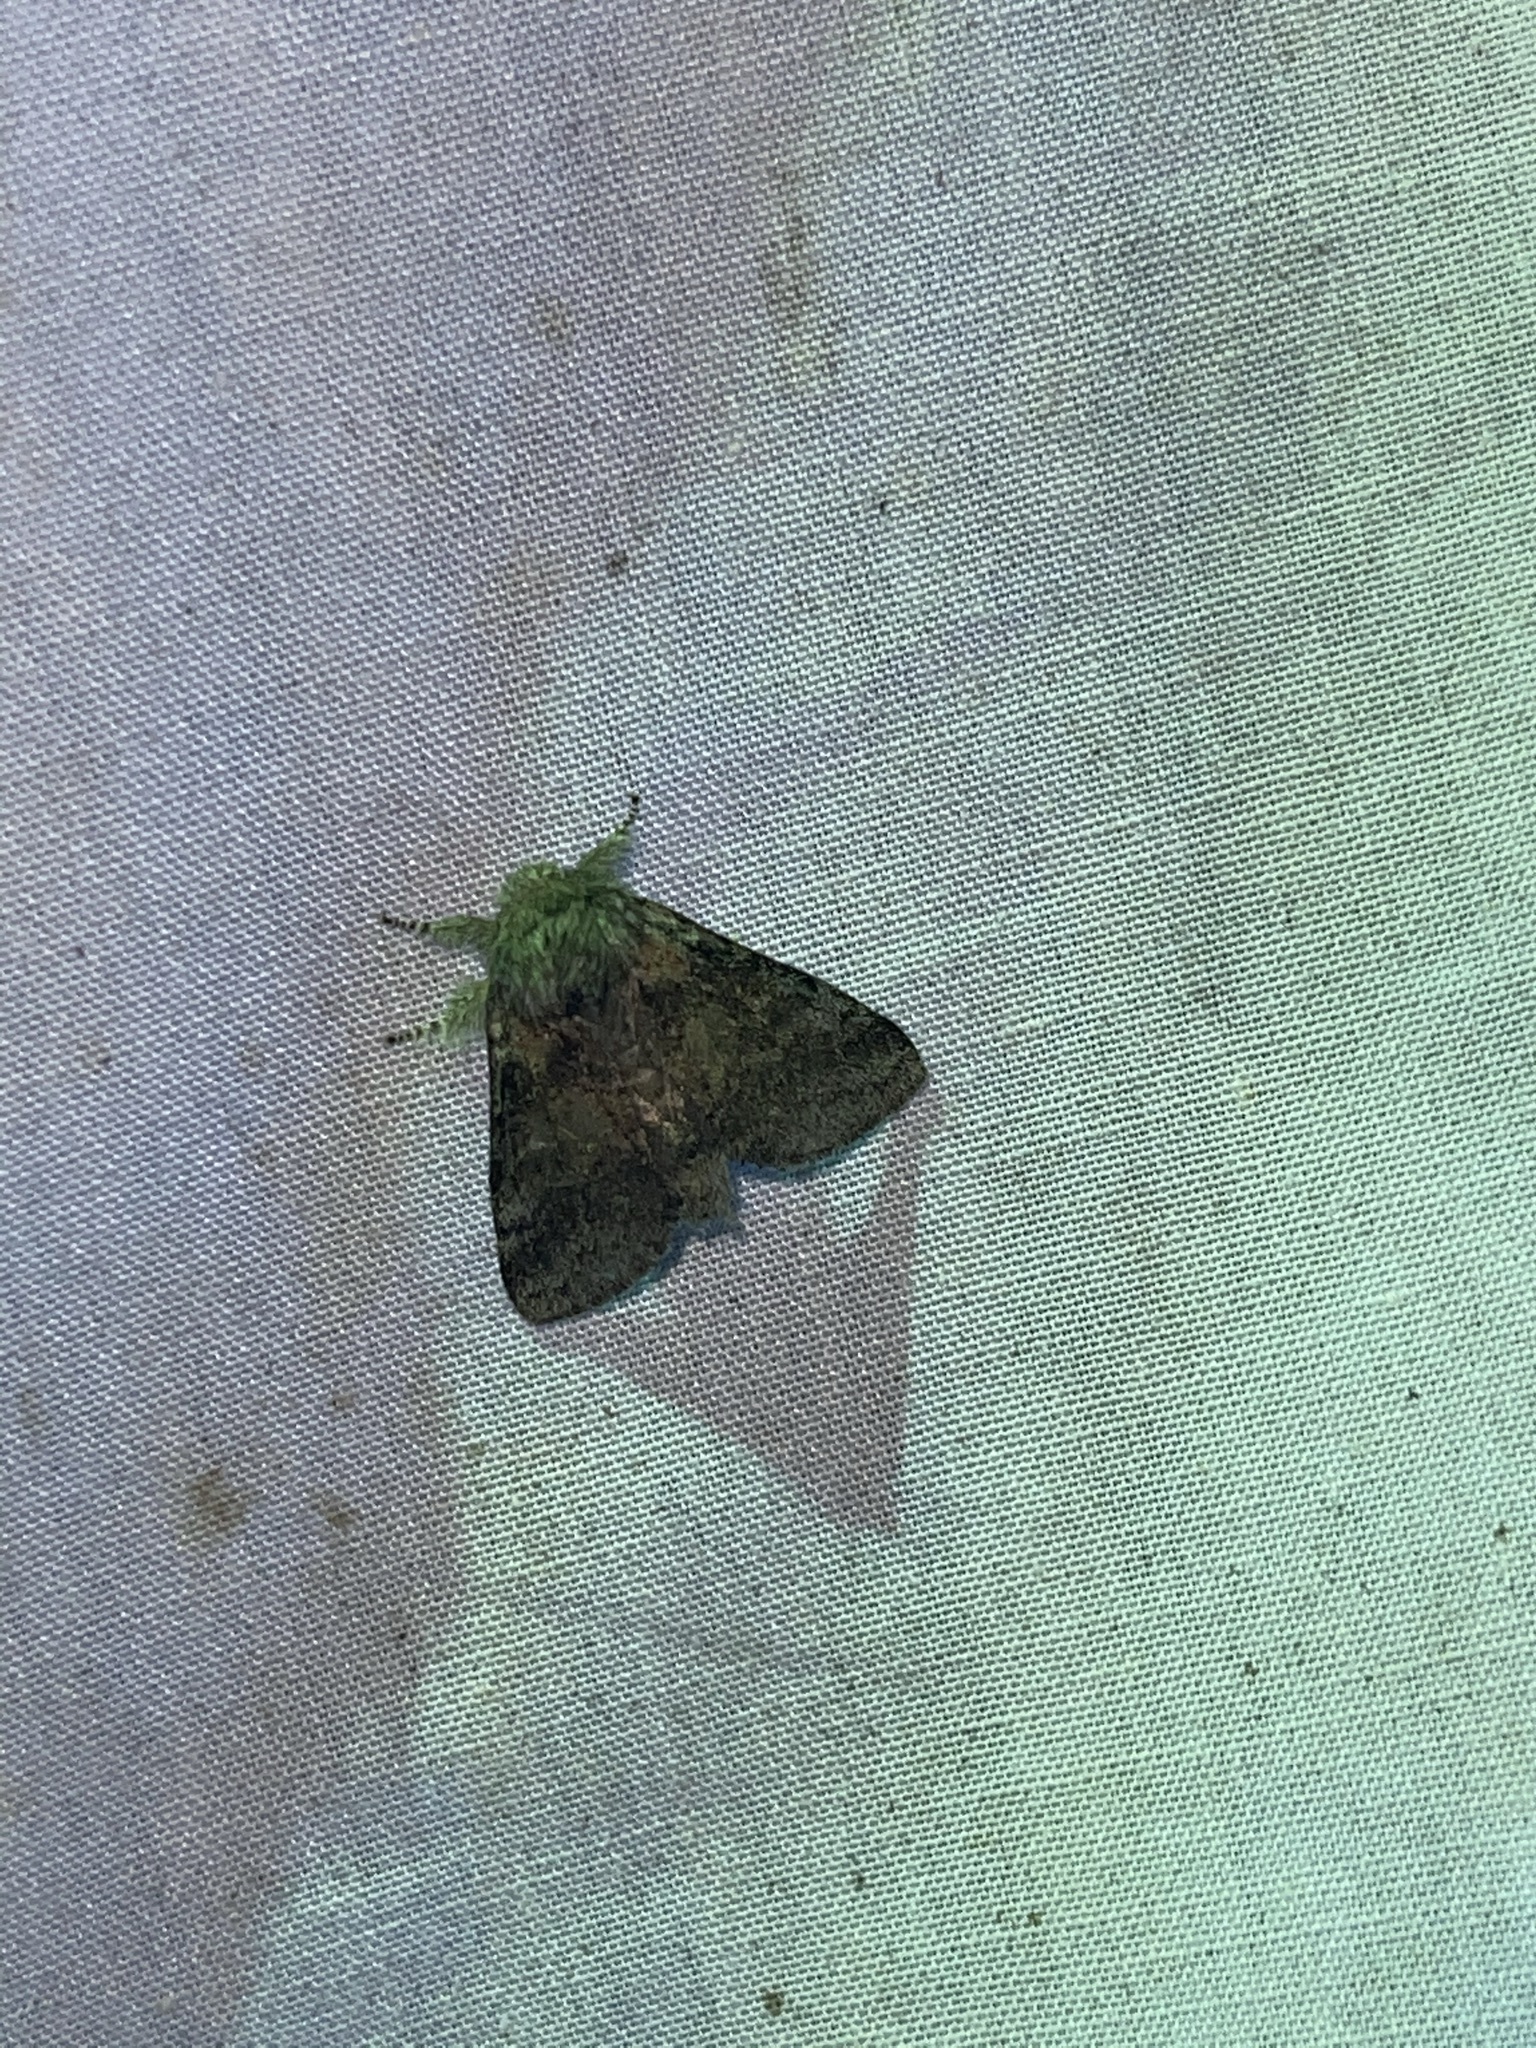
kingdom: Animalia
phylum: Arthropoda
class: Insecta
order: Lepidoptera
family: Notodontidae
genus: Gluphisia
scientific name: Gluphisia septentrionis
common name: Common gluphisia
